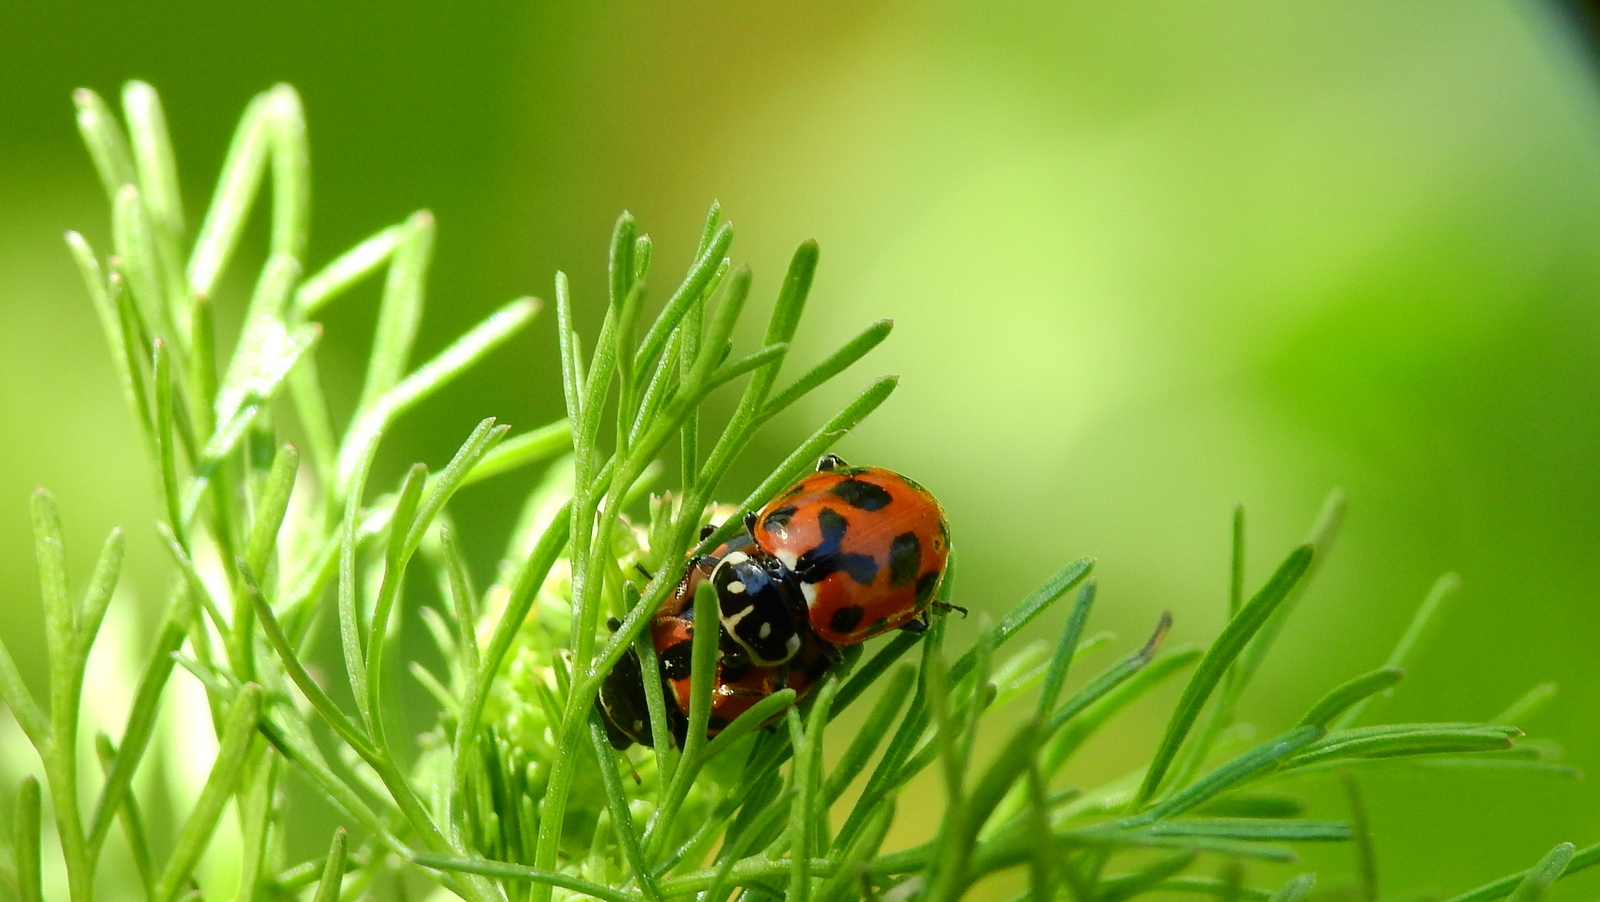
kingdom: Animalia
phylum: Arthropoda
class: Insecta
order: Coleoptera
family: Coccinellidae
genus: Hippodamia
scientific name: Hippodamia variegata
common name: Ladybird beetle
